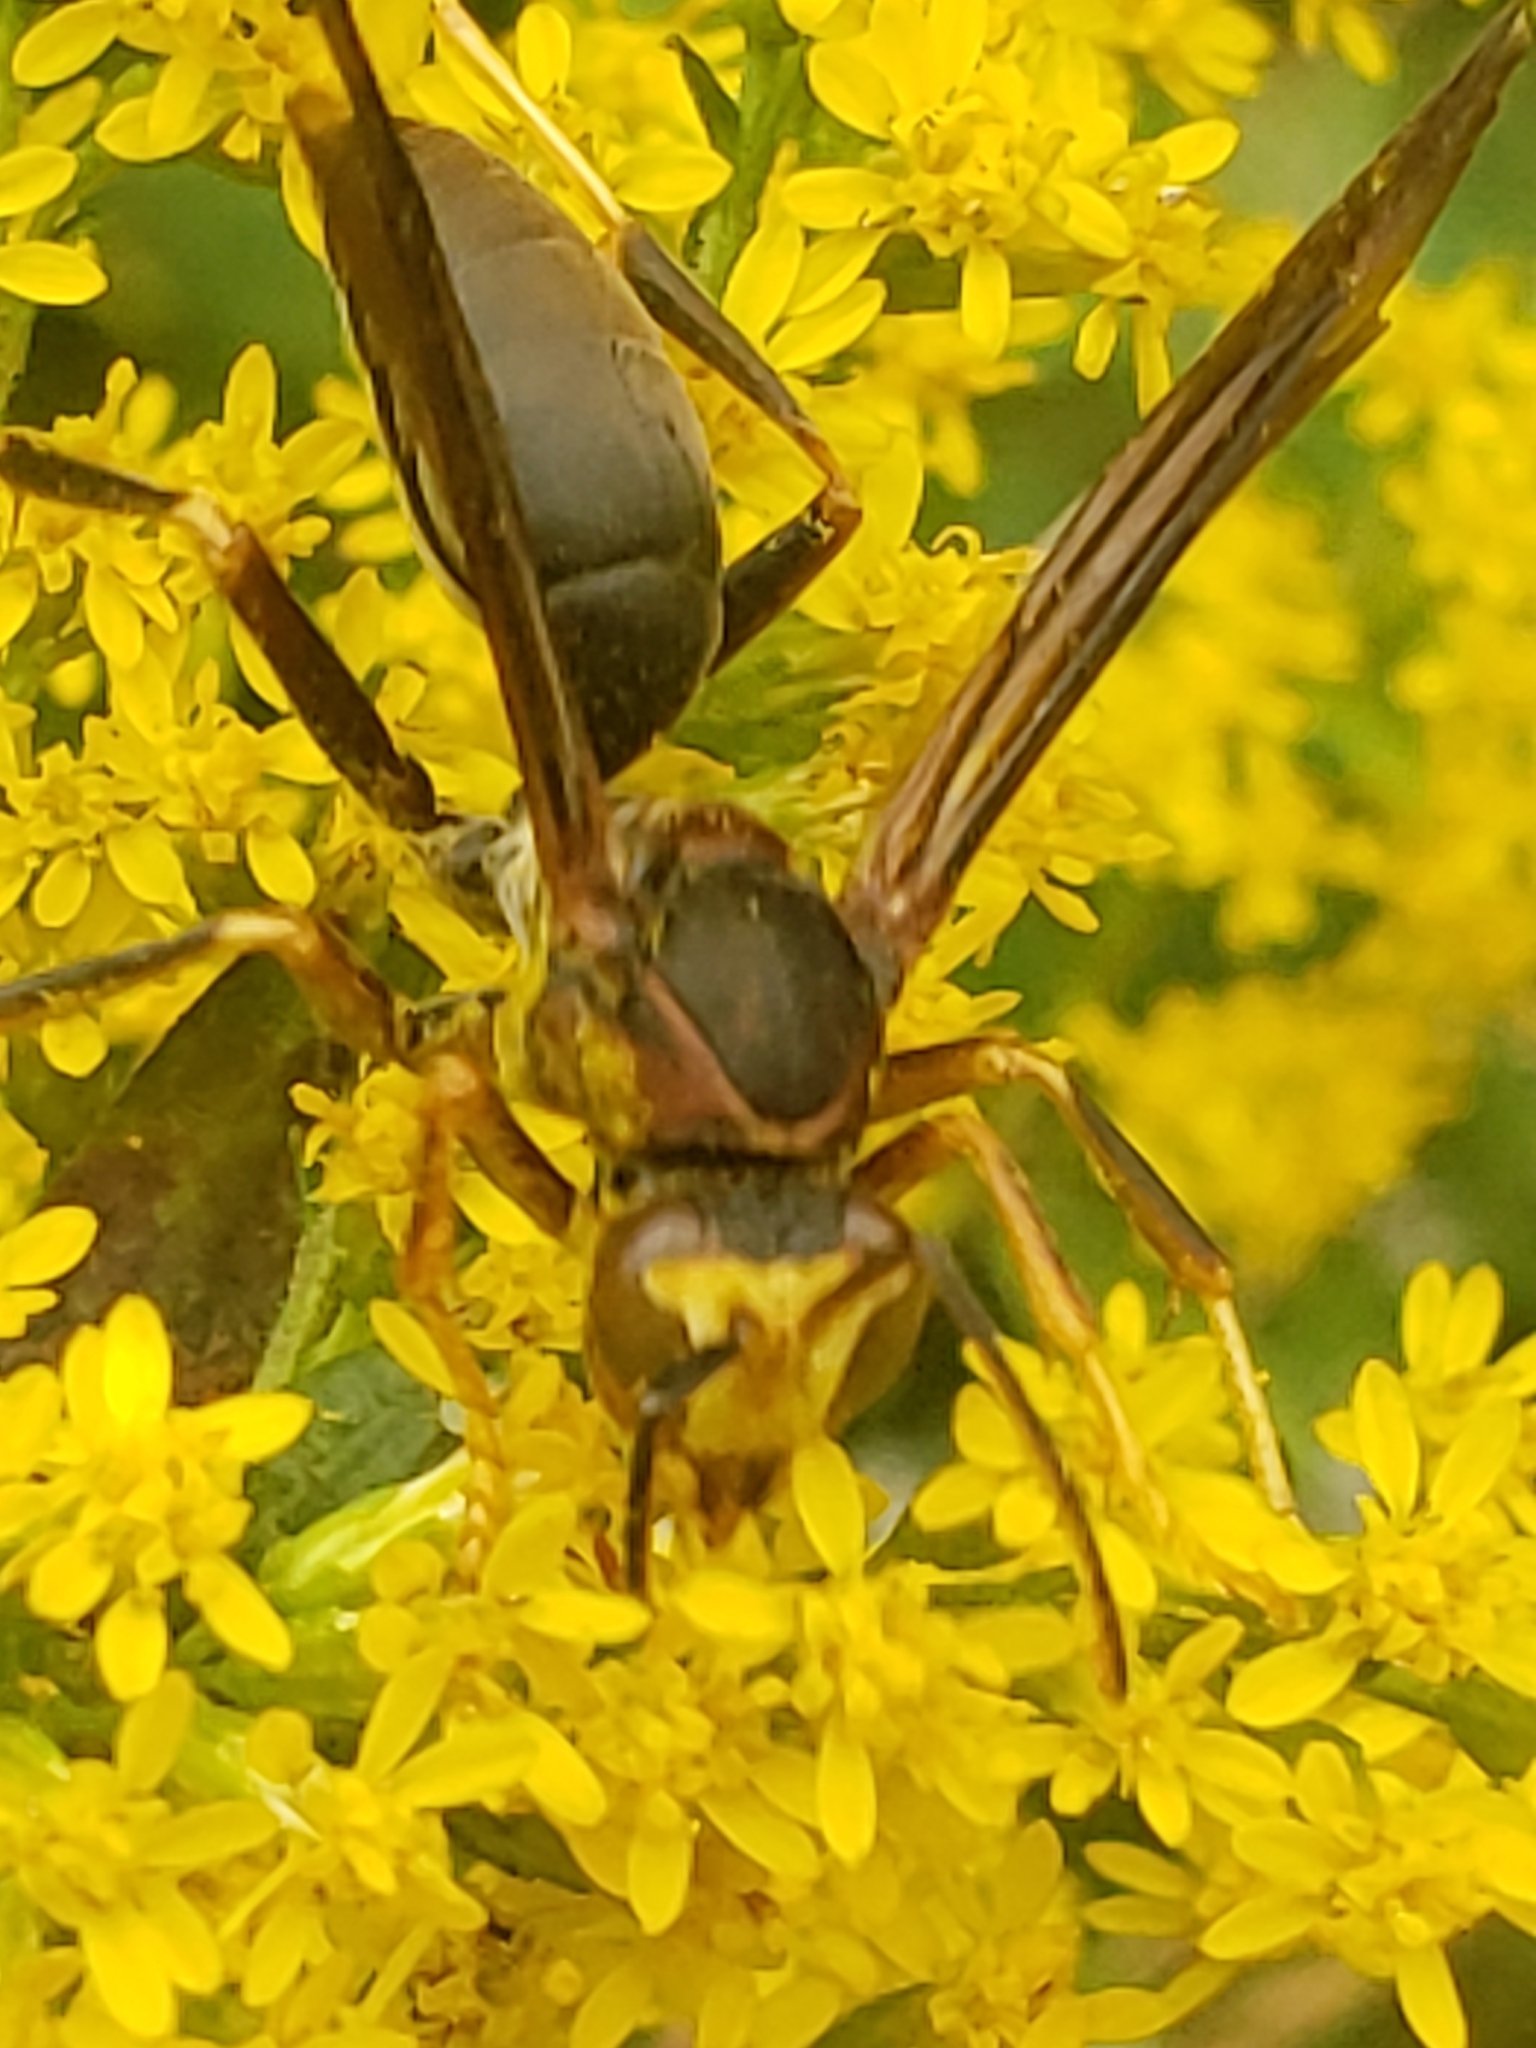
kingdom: Animalia
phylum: Arthropoda
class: Insecta
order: Hymenoptera
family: Eumenidae
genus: Polistes
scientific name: Polistes fuscatus
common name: Dark paper wasp
